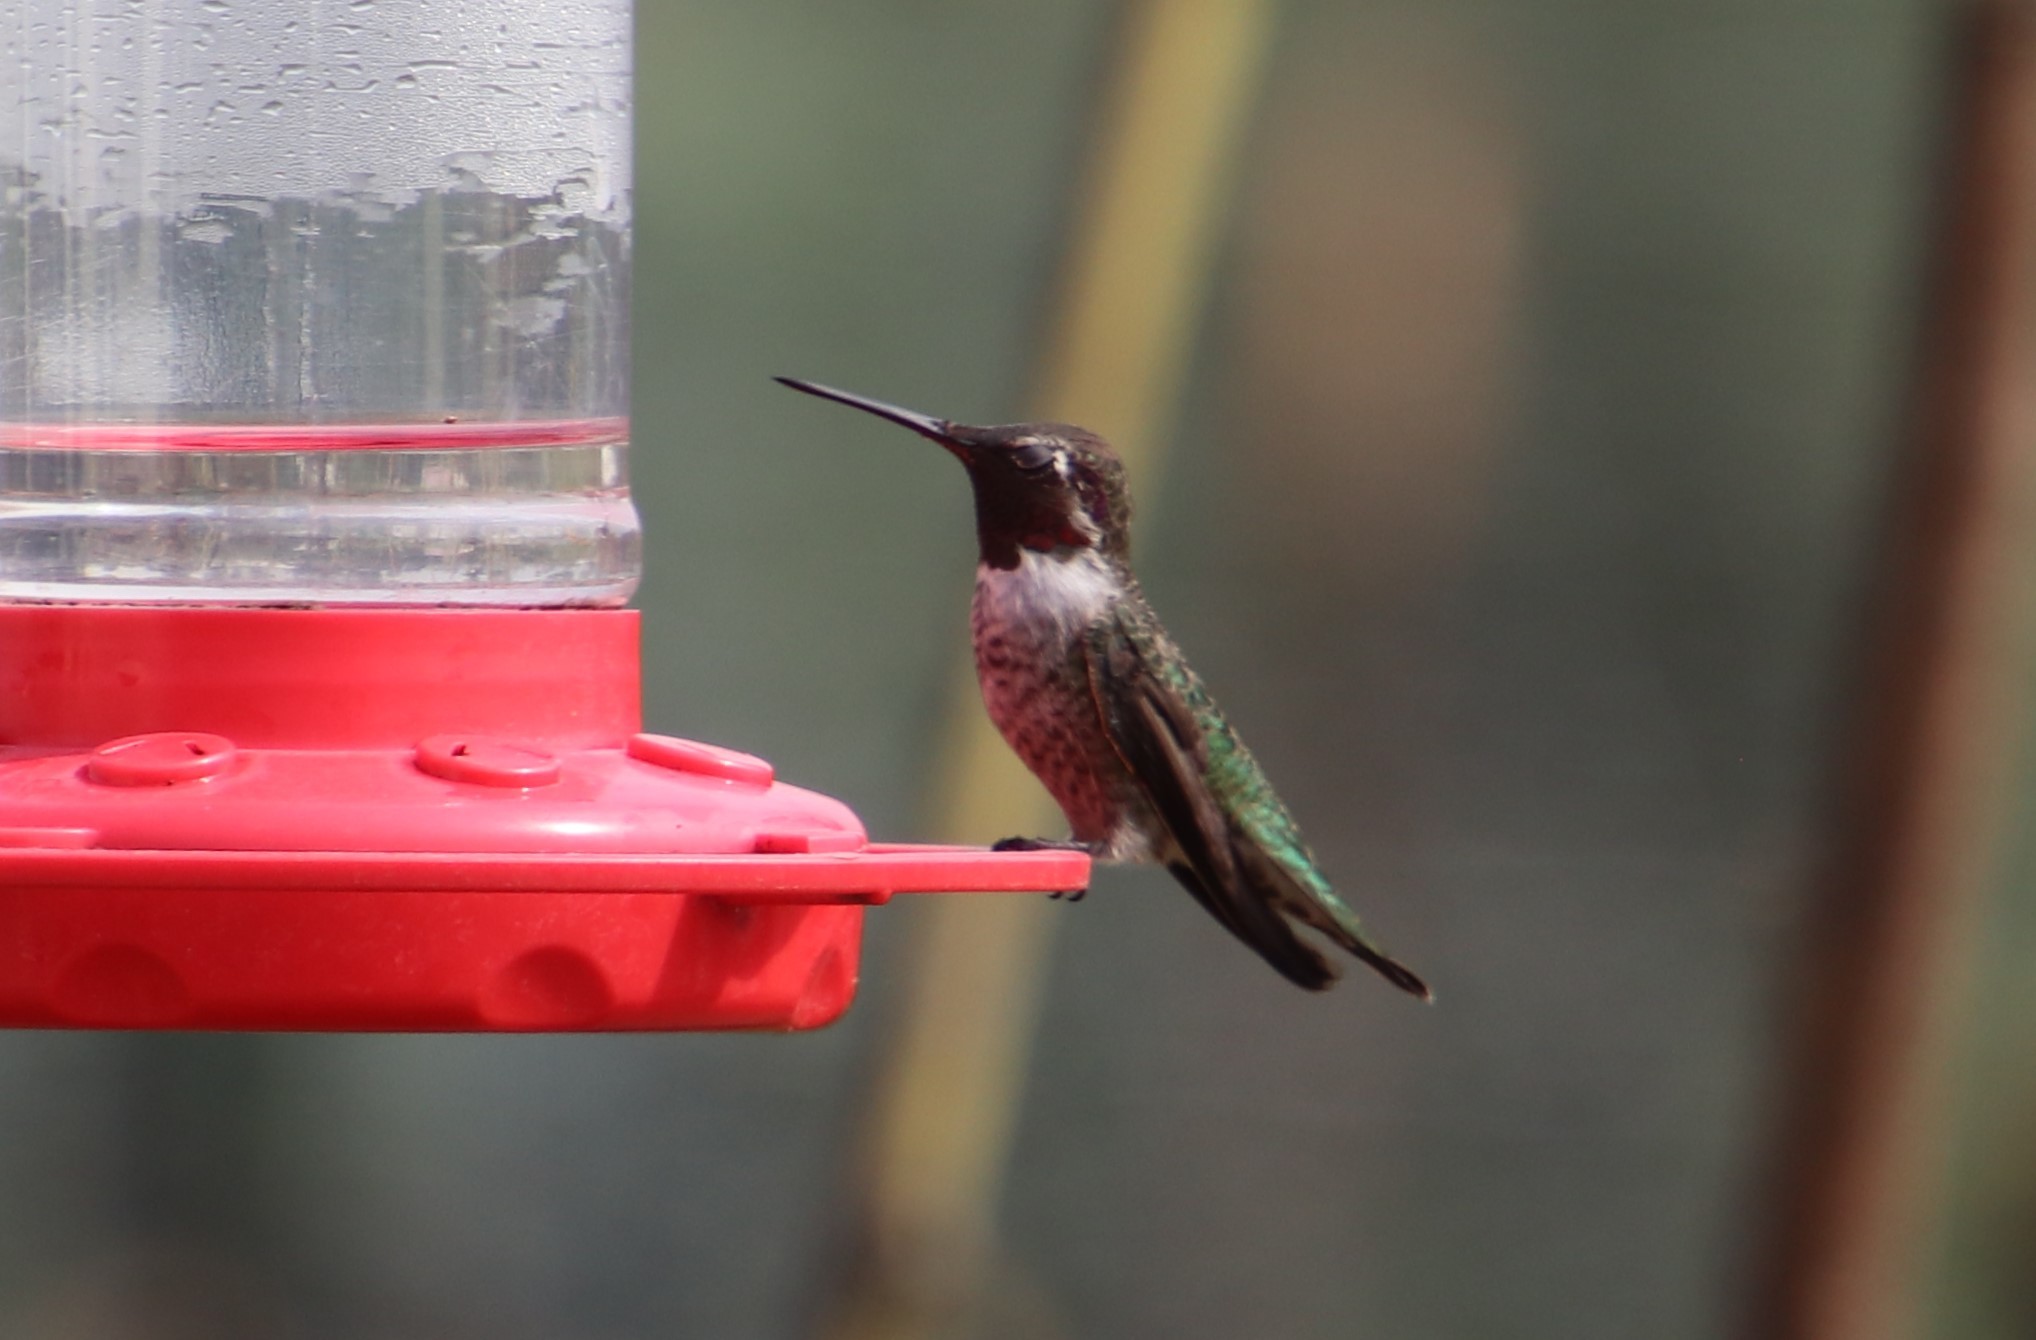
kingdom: Animalia
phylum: Chordata
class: Aves
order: Apodiformes
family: Trochilidae
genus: Calypte
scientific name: Calypte anna
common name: Anna's hummingbird
